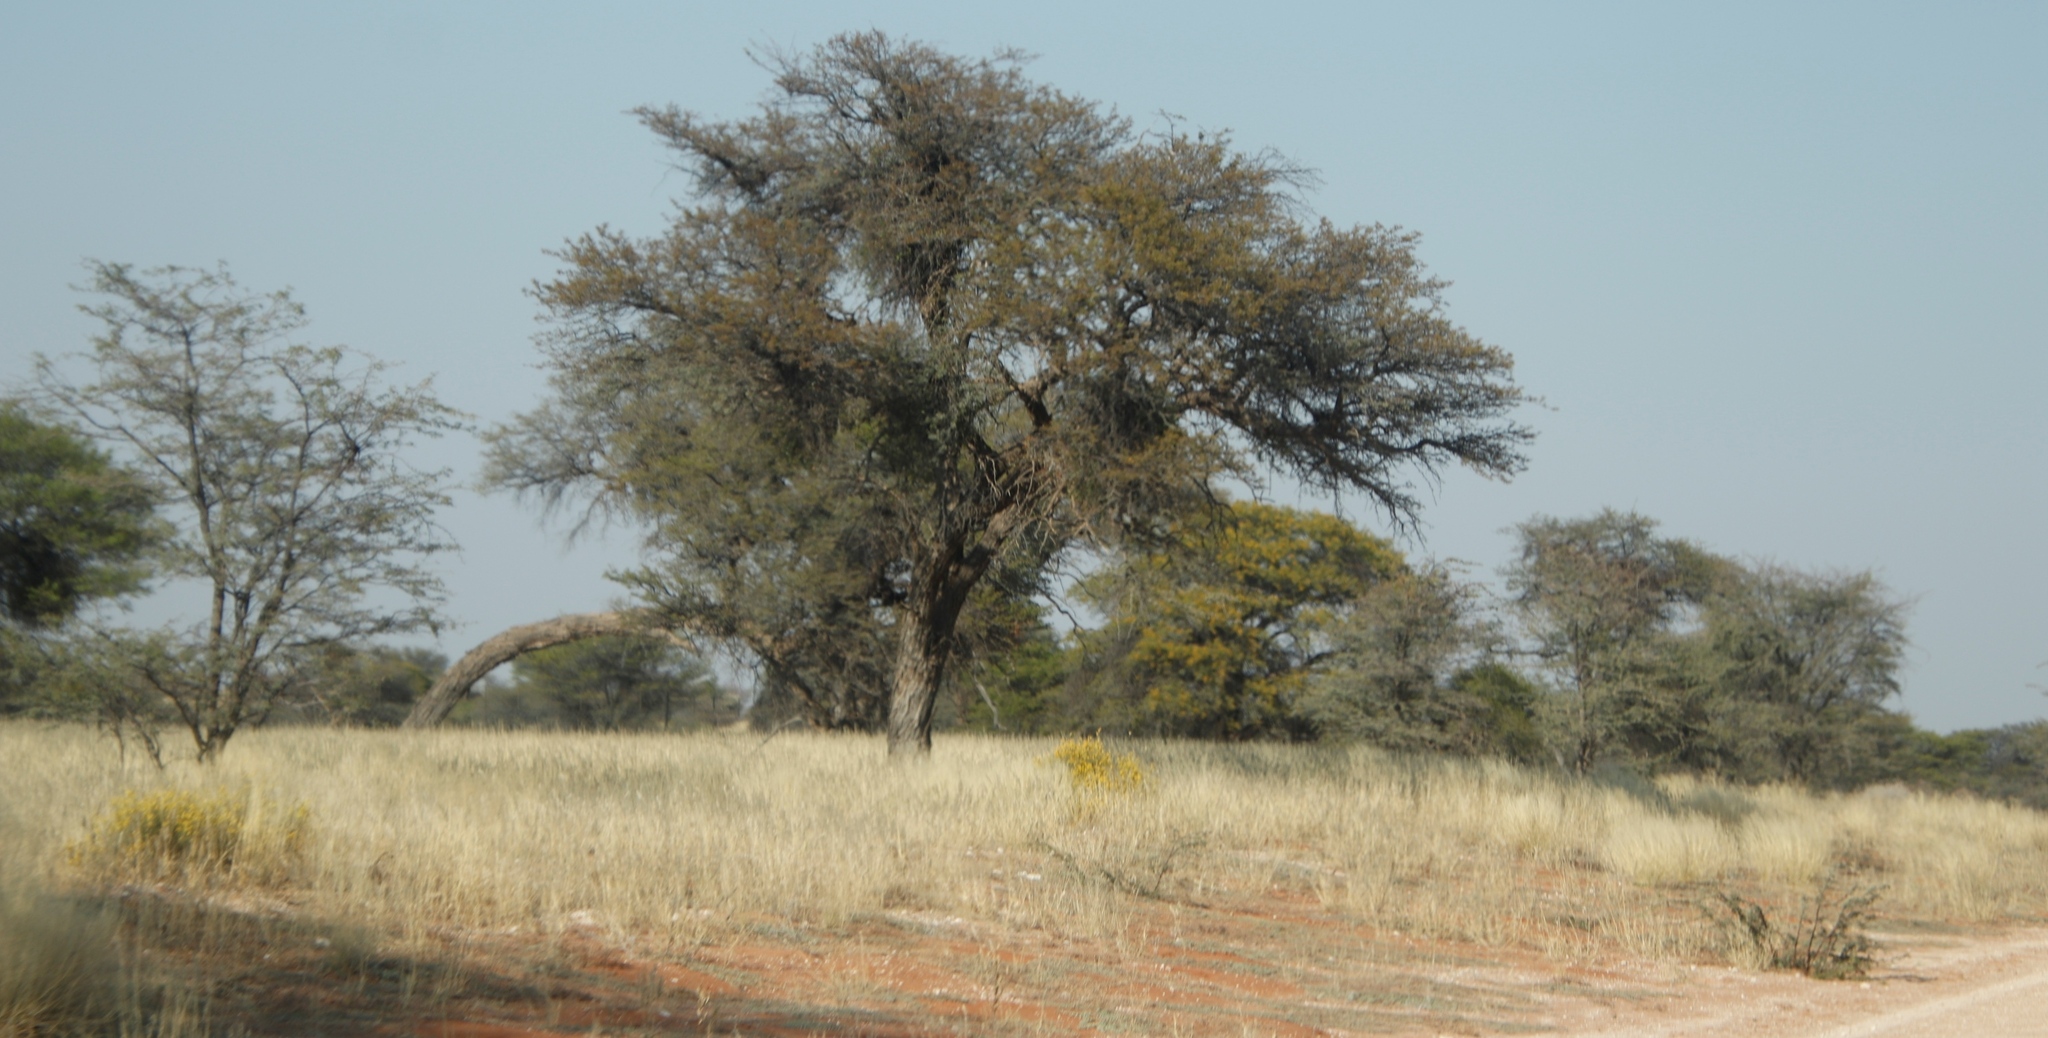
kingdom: Plantae
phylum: Tracheophyta
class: Magnoliopsida
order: Fabales
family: Fabaceae
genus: Vachellia
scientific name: Vachellia erioloba
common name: Camel thorn
